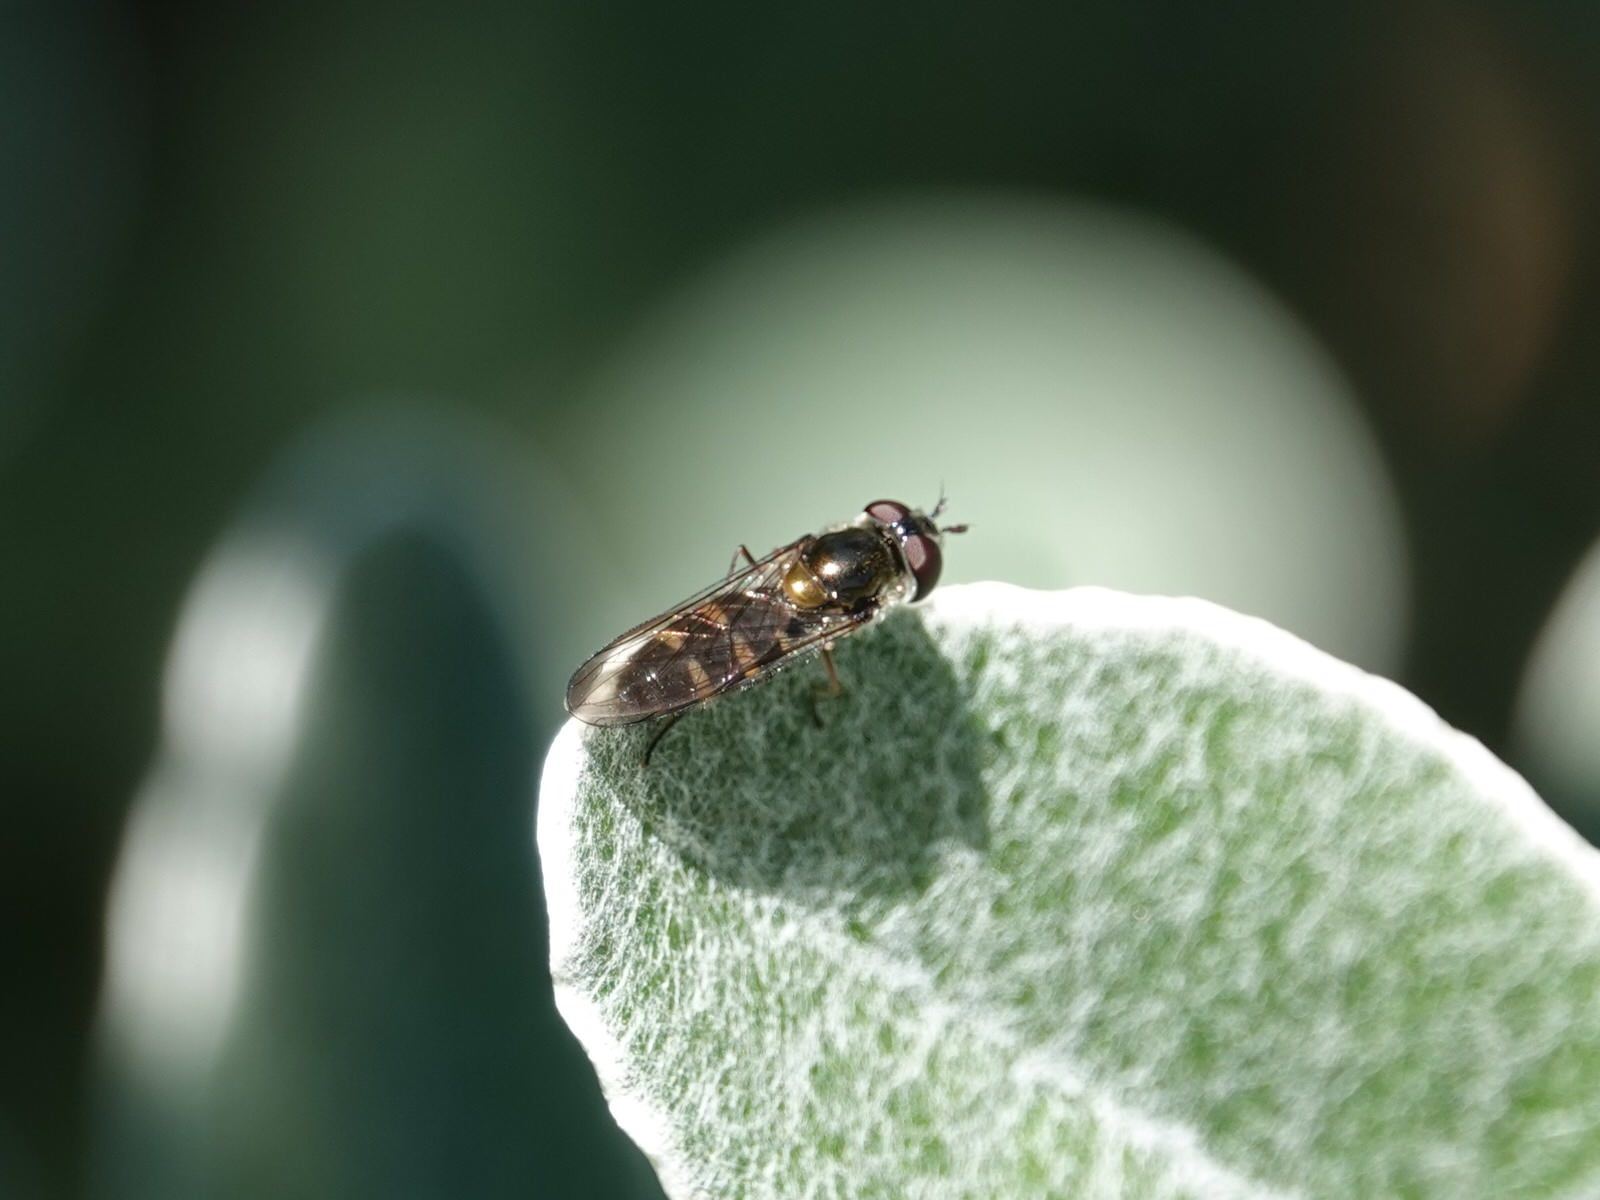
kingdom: Animalia
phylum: Arthropoda
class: Insecta
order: Diptera
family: Syrphidae
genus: Melangyna
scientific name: Melangyna novaezelandiae
